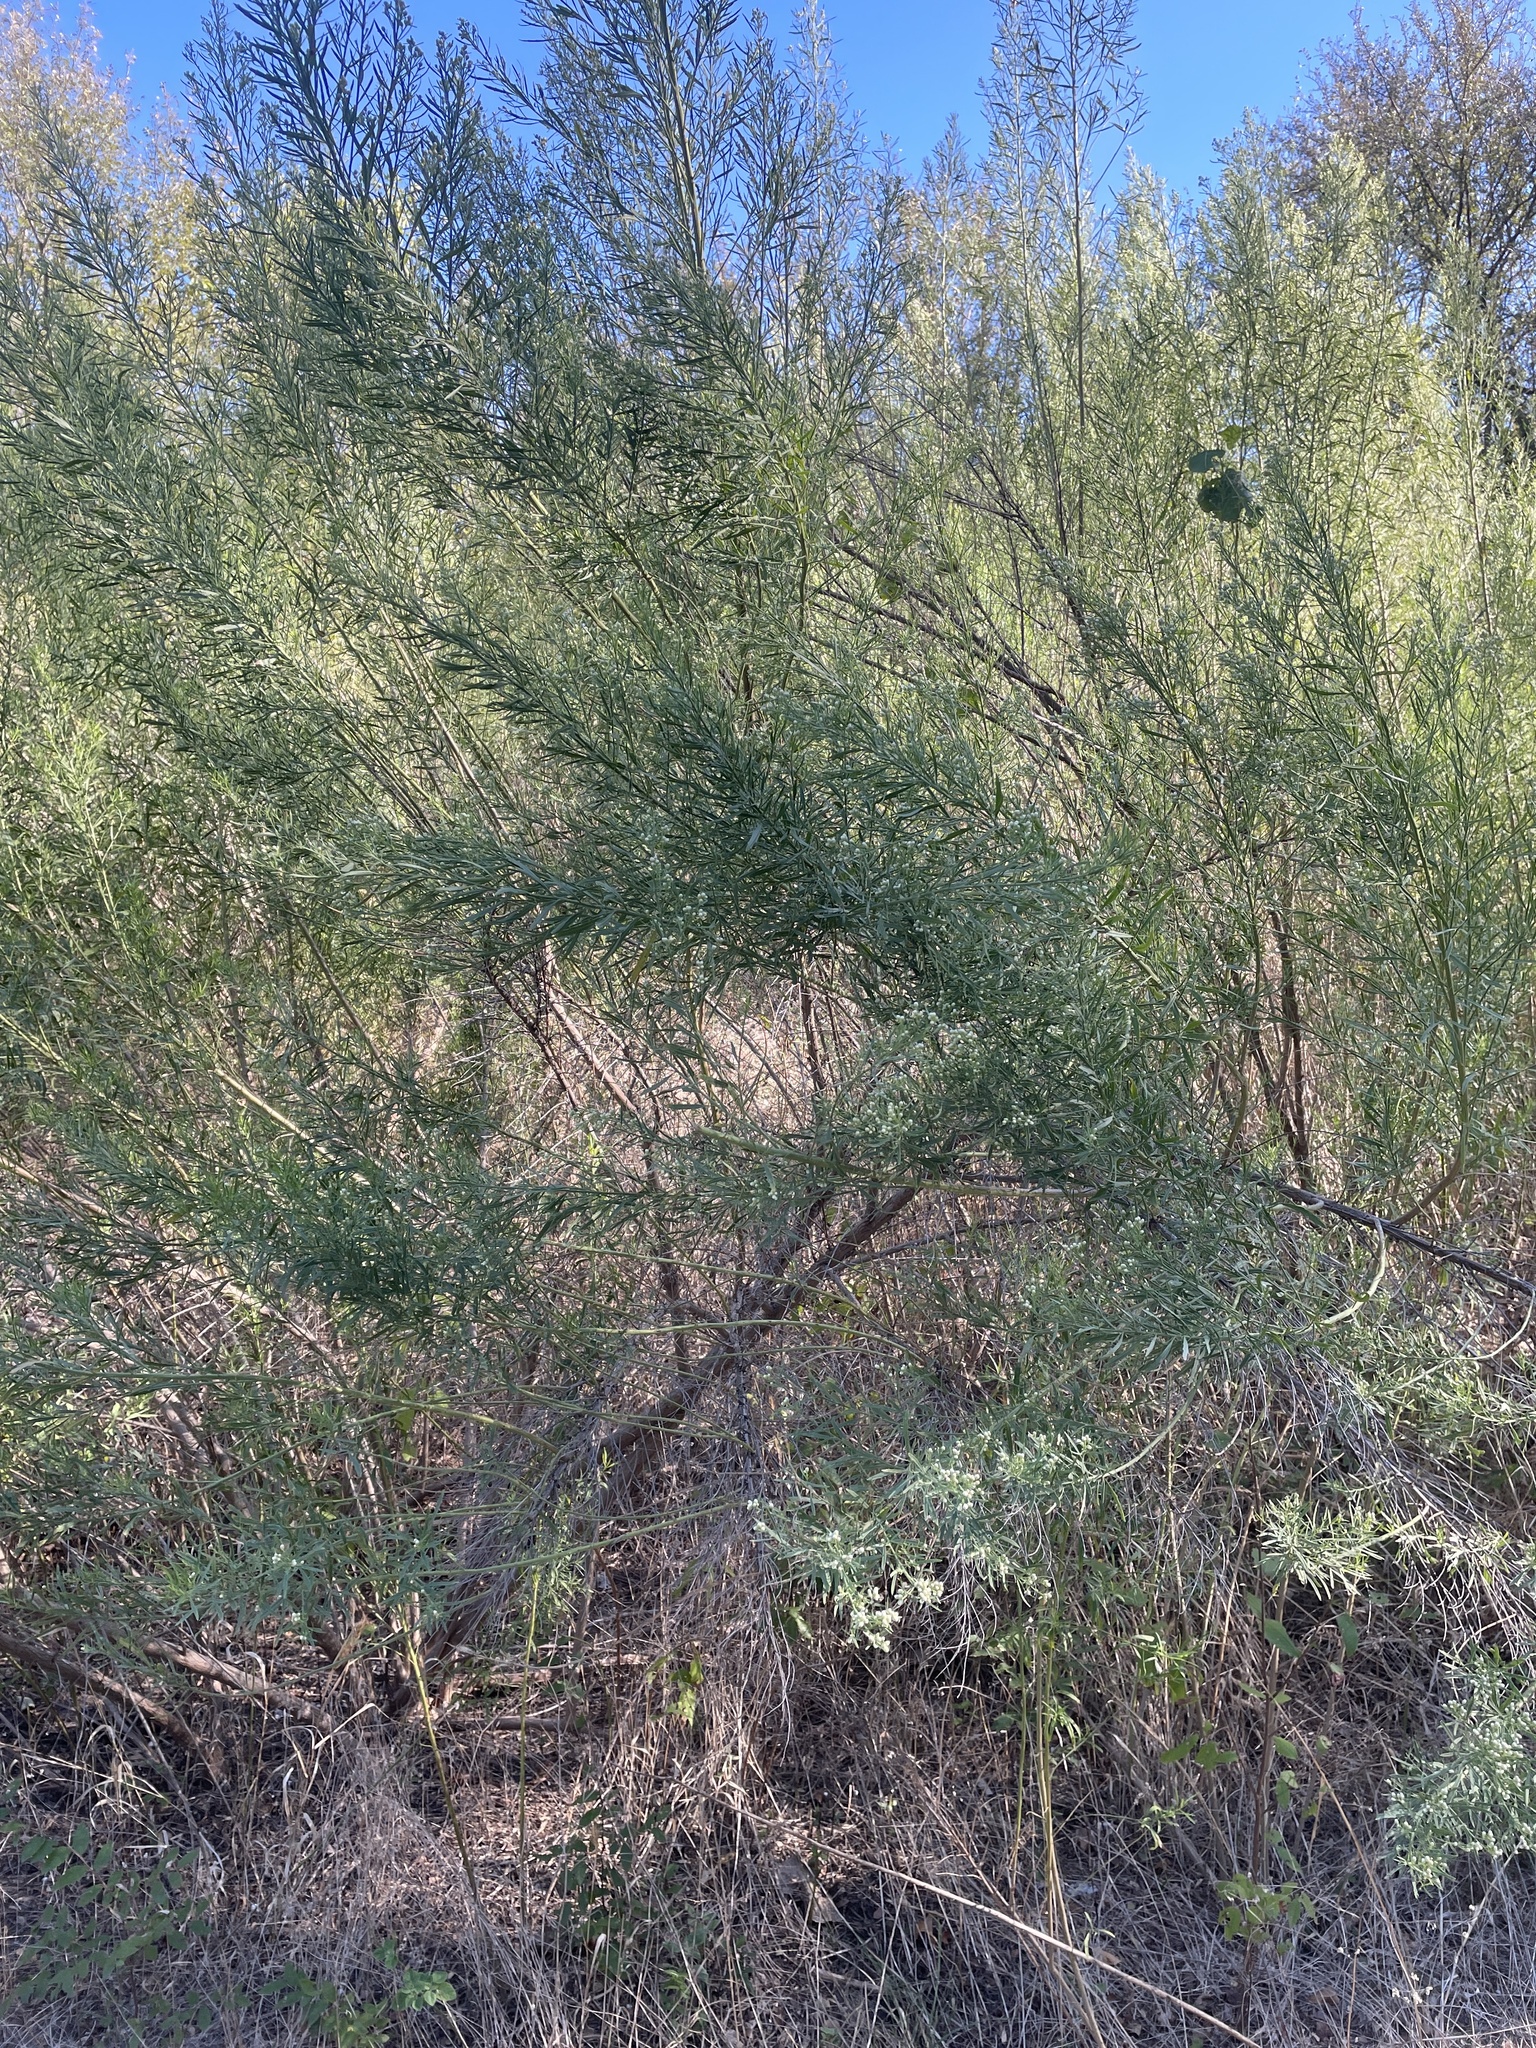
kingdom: Plantae
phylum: Tracheophyta
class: Magnoliopsida
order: Asterales
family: Asteraceae
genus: Baccharis
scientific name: Baccharis neglecta
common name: Roosevelt-weed
